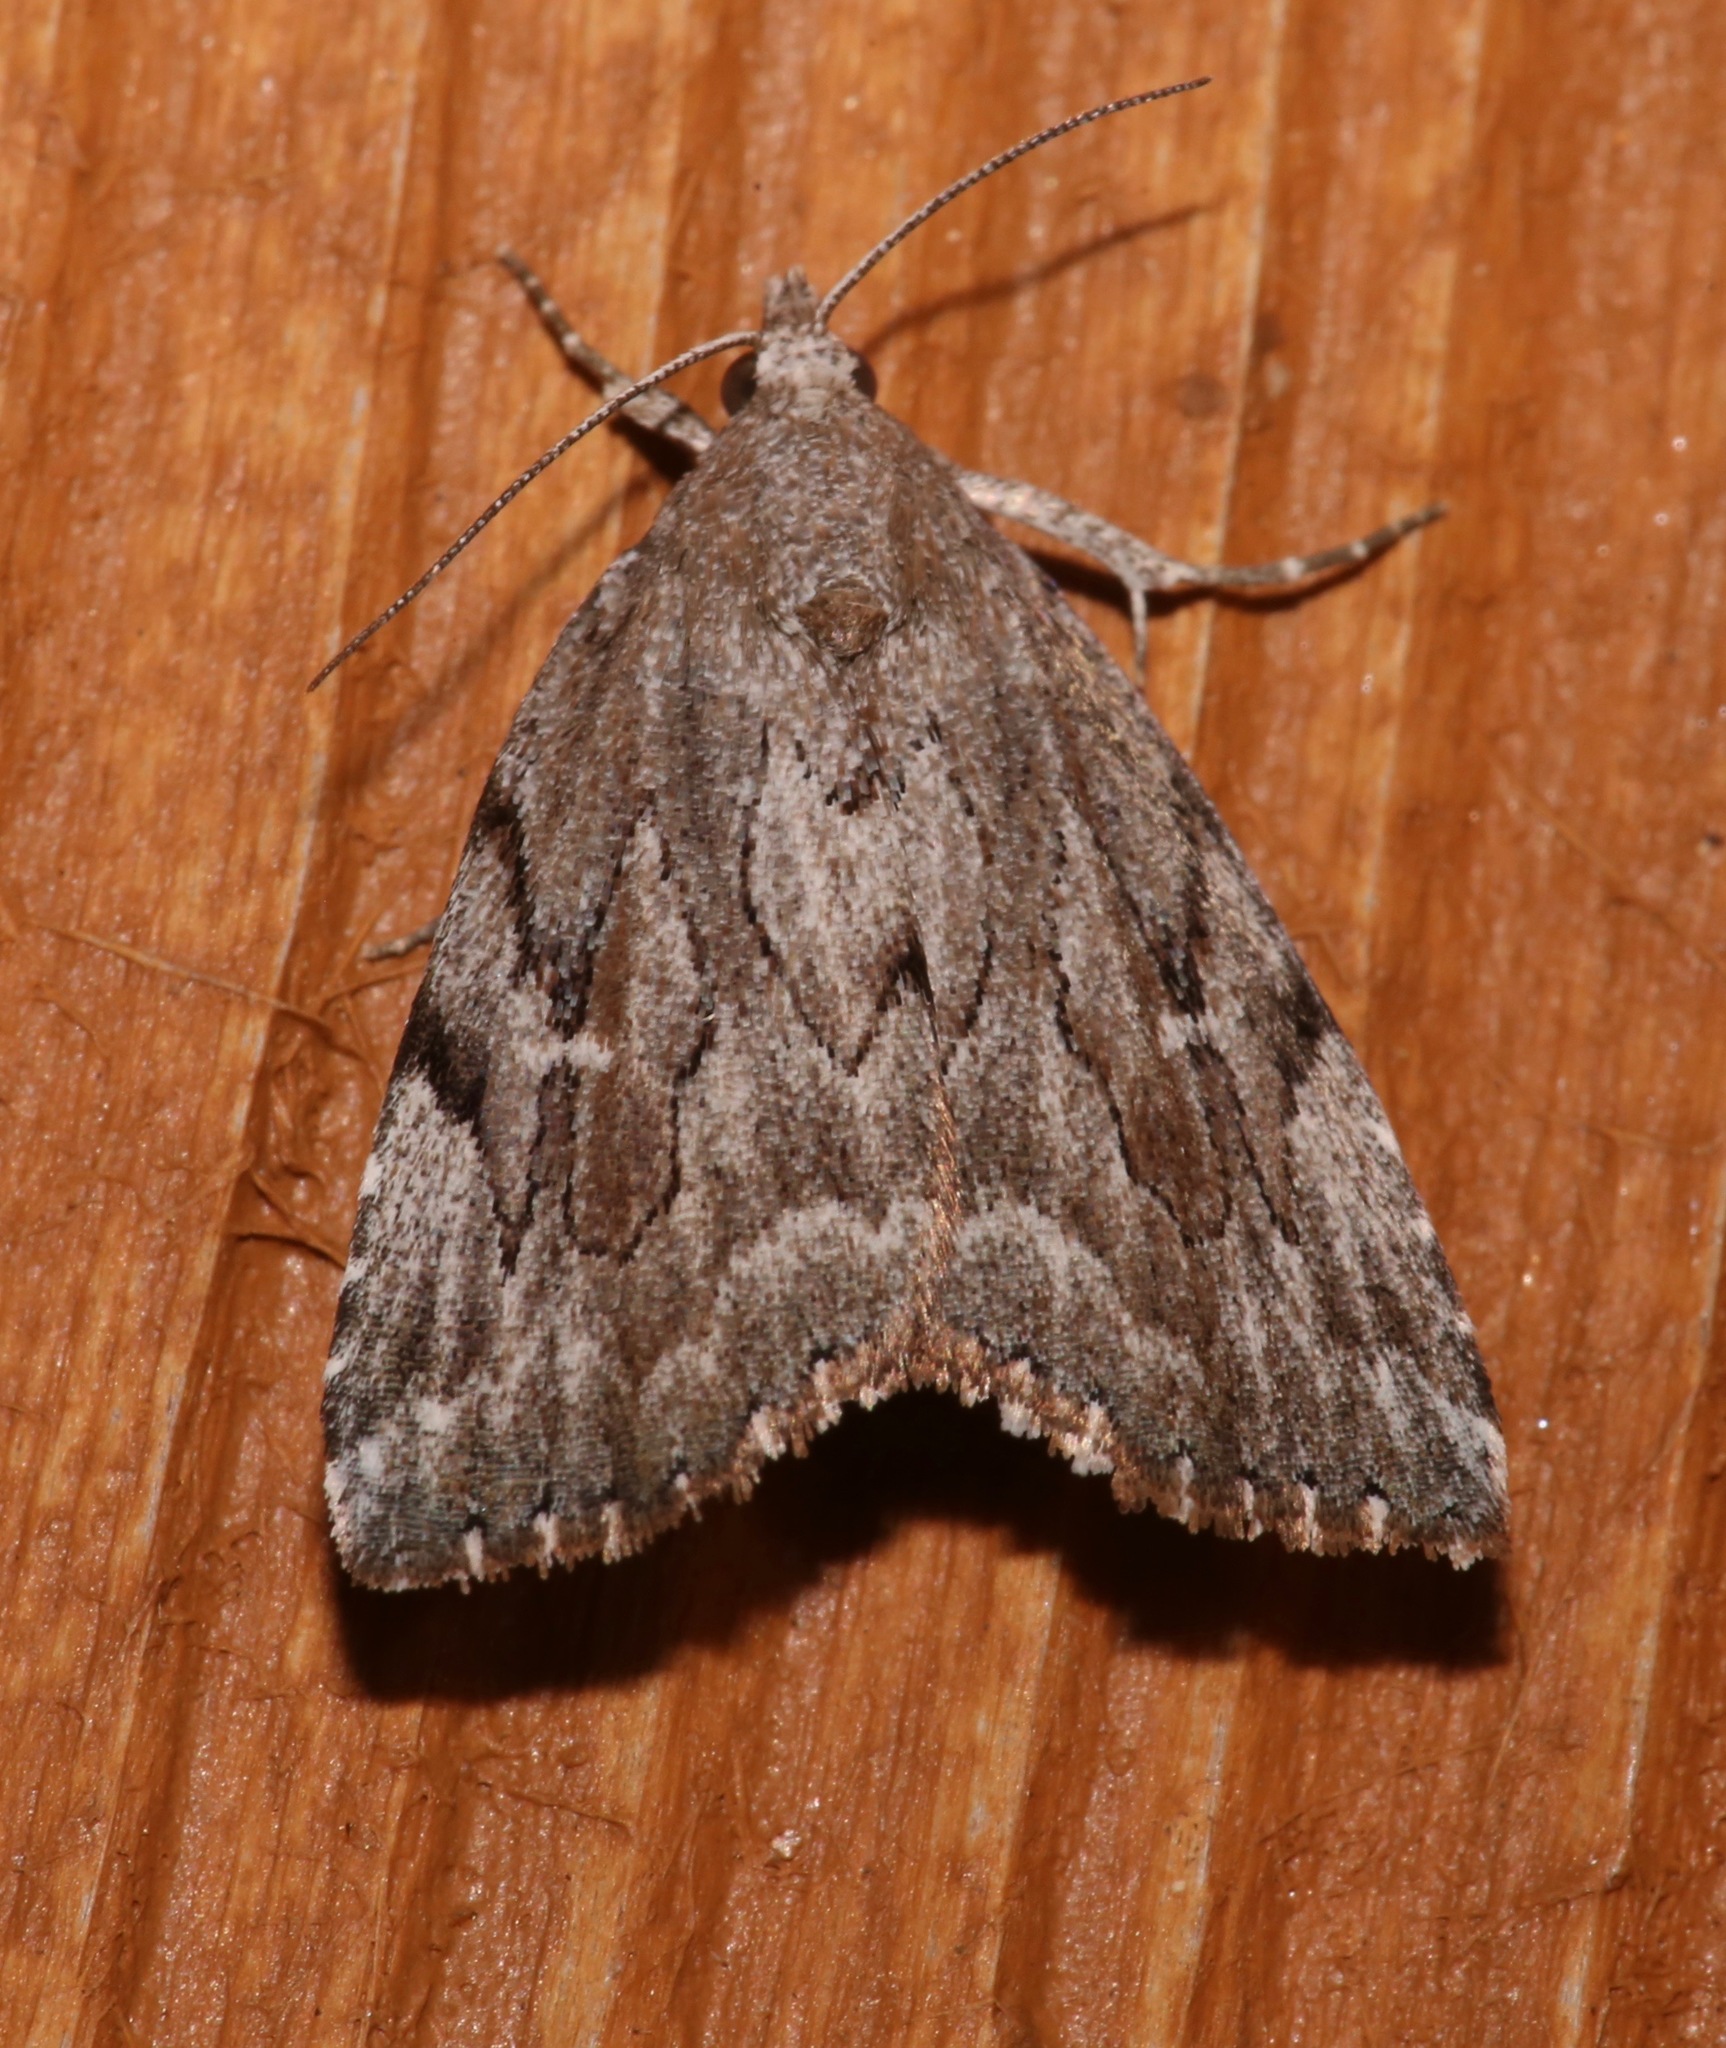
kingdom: Animalia
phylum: Arthropoda
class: Insecta
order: Lepidoptera
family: Erebidae
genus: Cutina
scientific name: Cutina albopunctella
